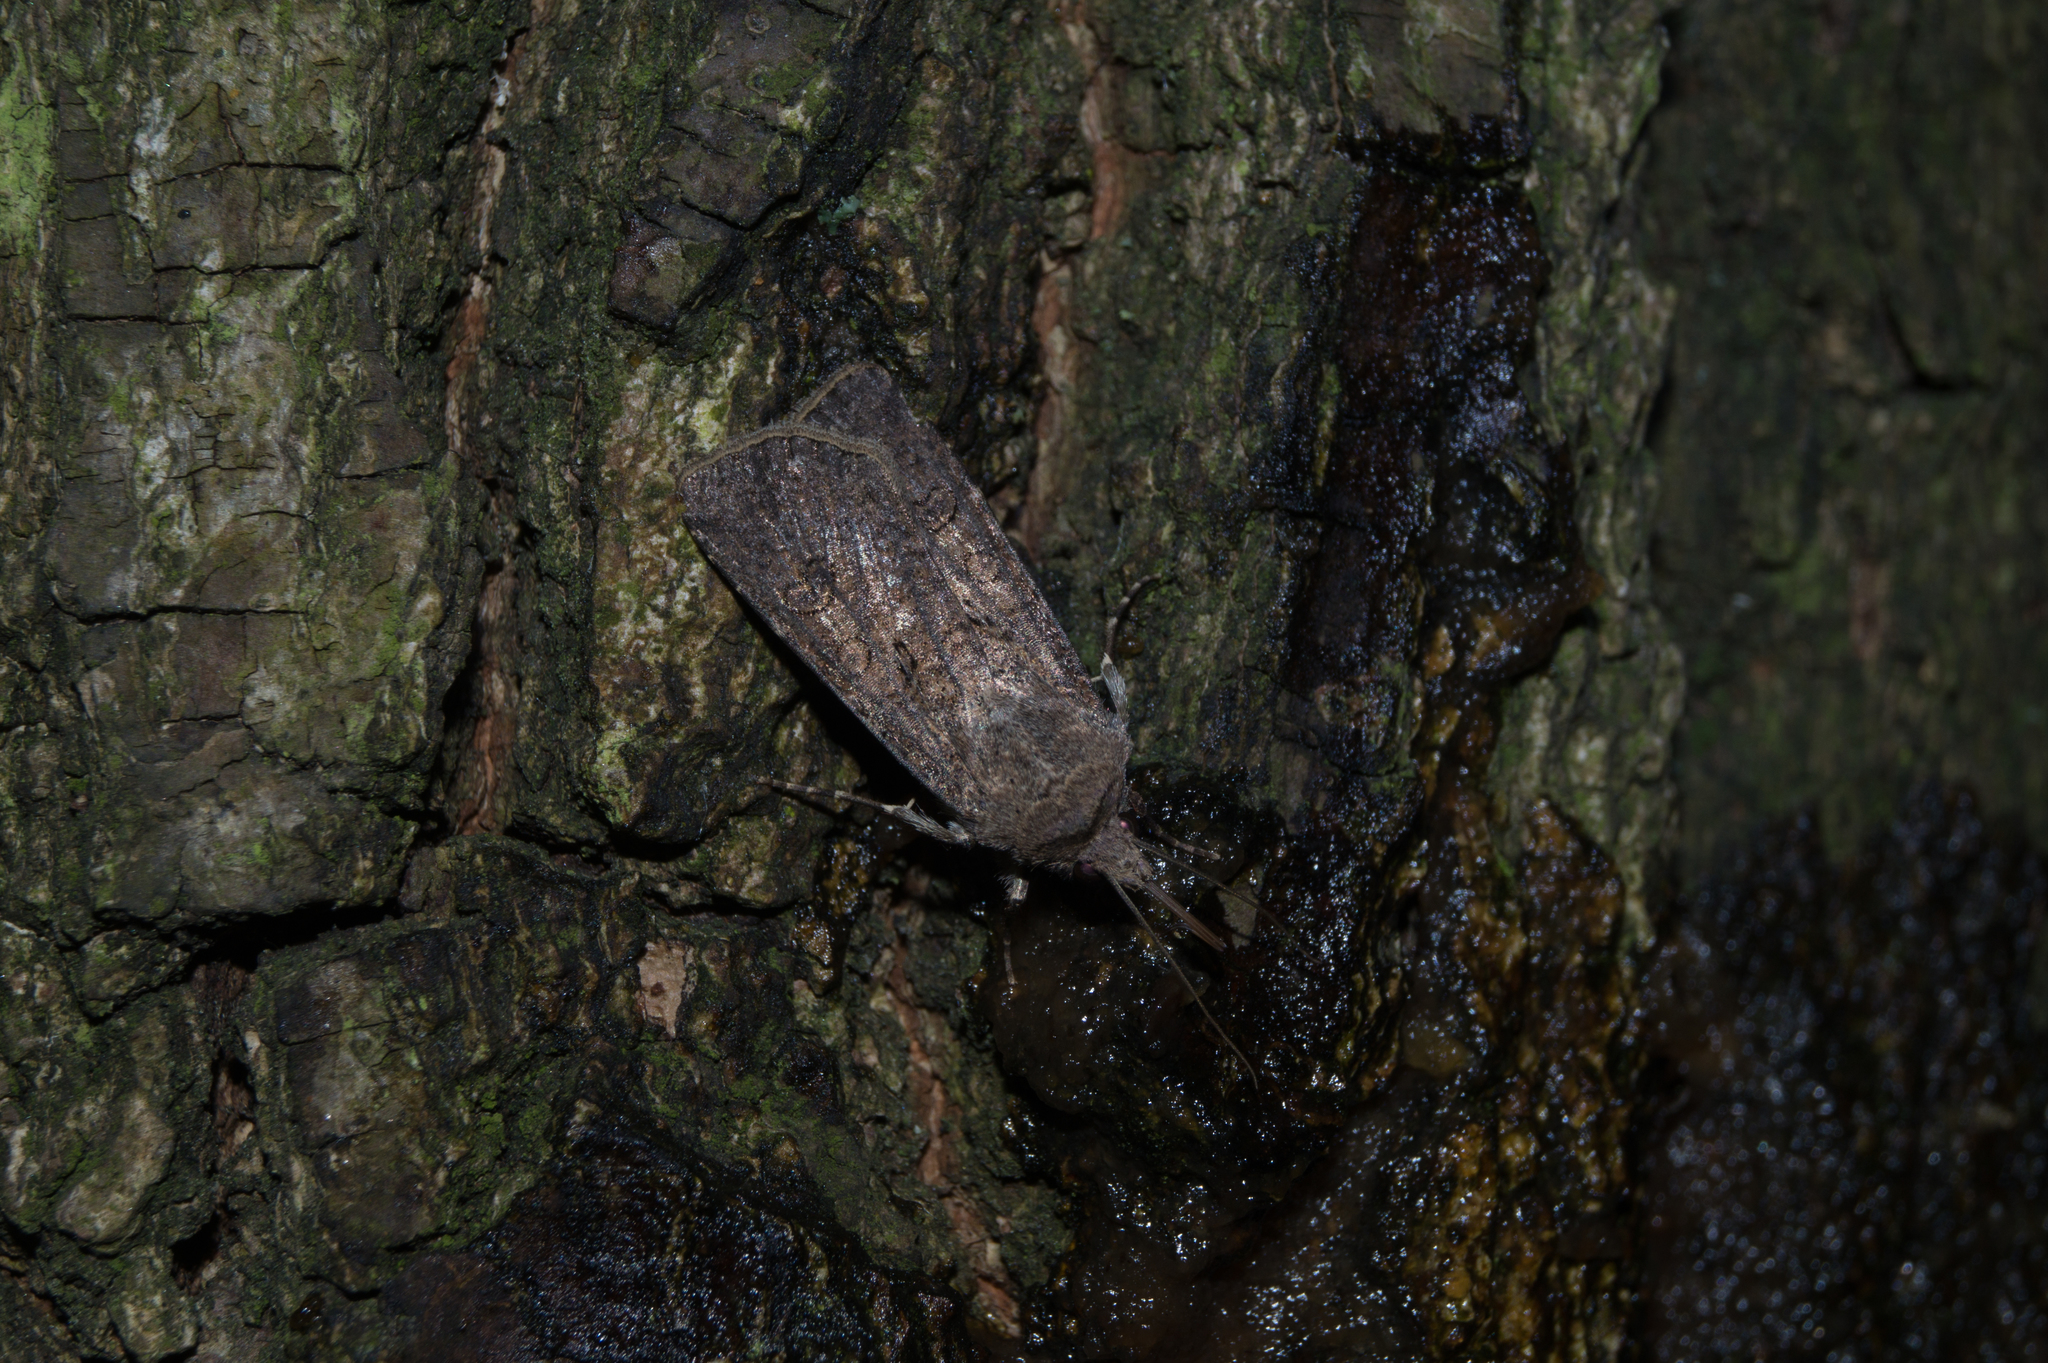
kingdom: Animalia
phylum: Arthropoda
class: Insecta
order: Lepidoptera
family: Noctuidae
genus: Agrotis
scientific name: Agrotis segetum
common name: Turnip moth
